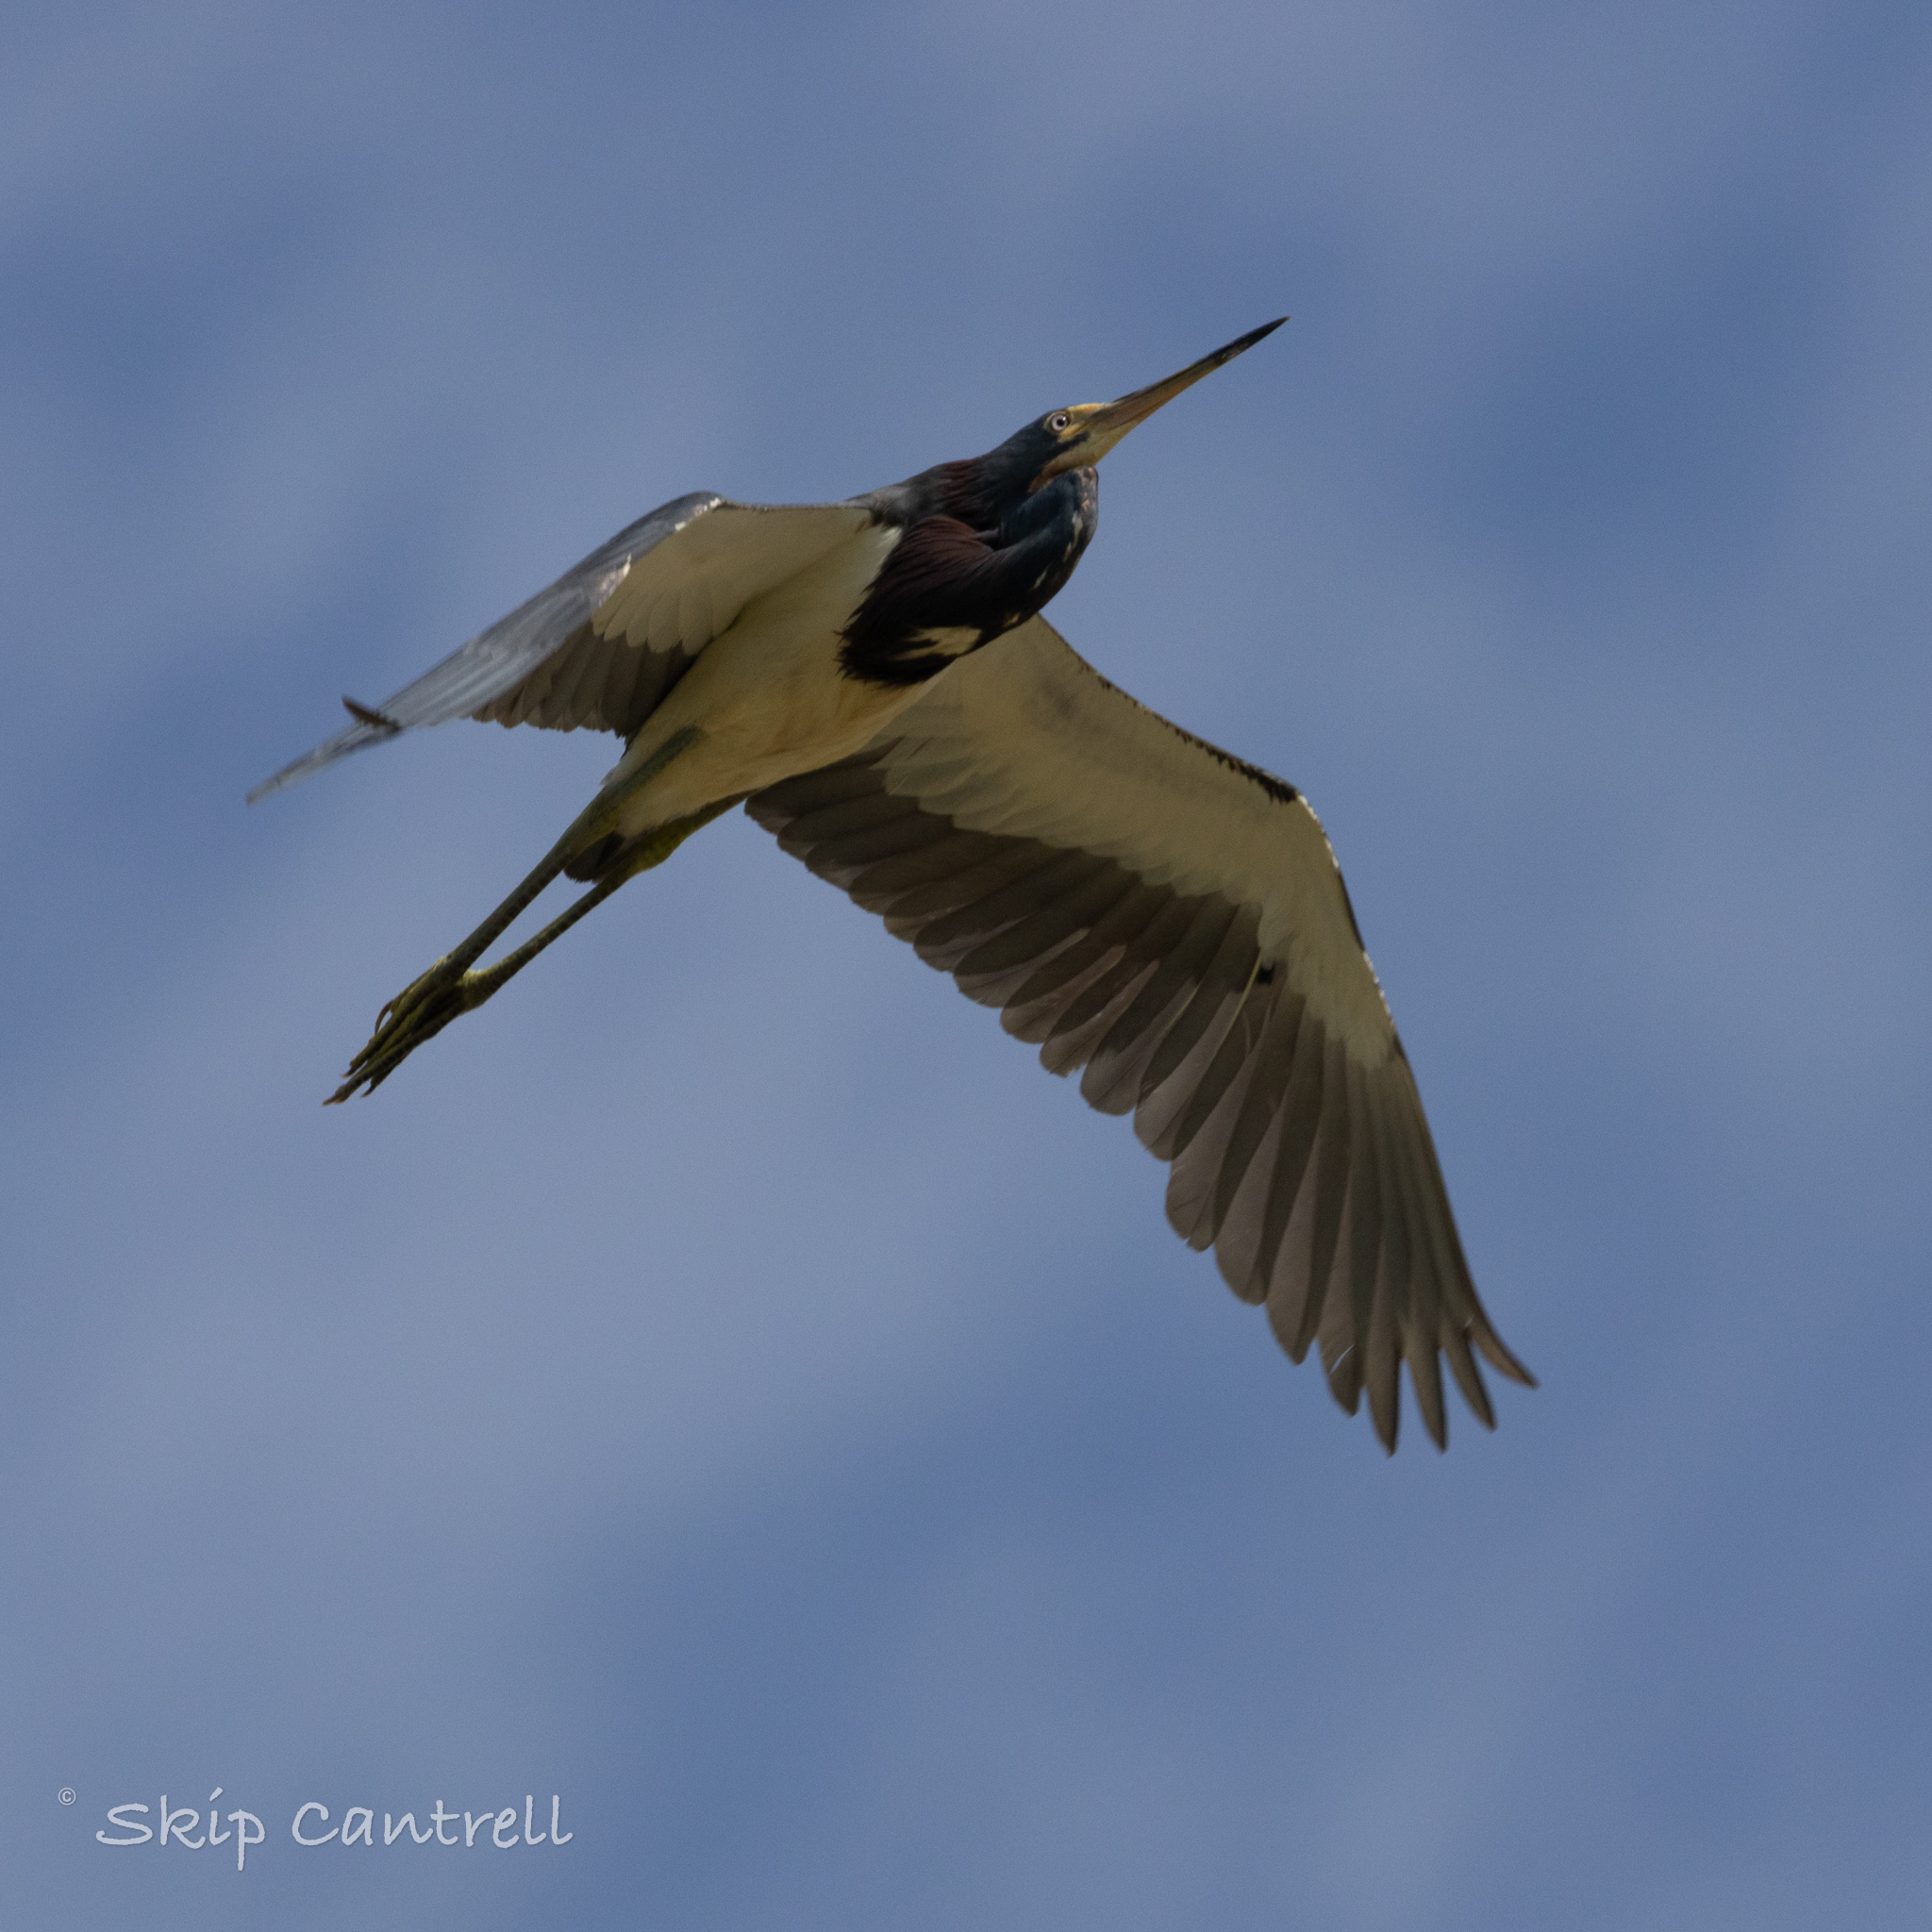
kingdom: Animalia
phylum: Chordata
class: Aves
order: Pelecaniformes
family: Ardeidae
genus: Egretta
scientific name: Egretta tricolor
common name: Tricolored heron
